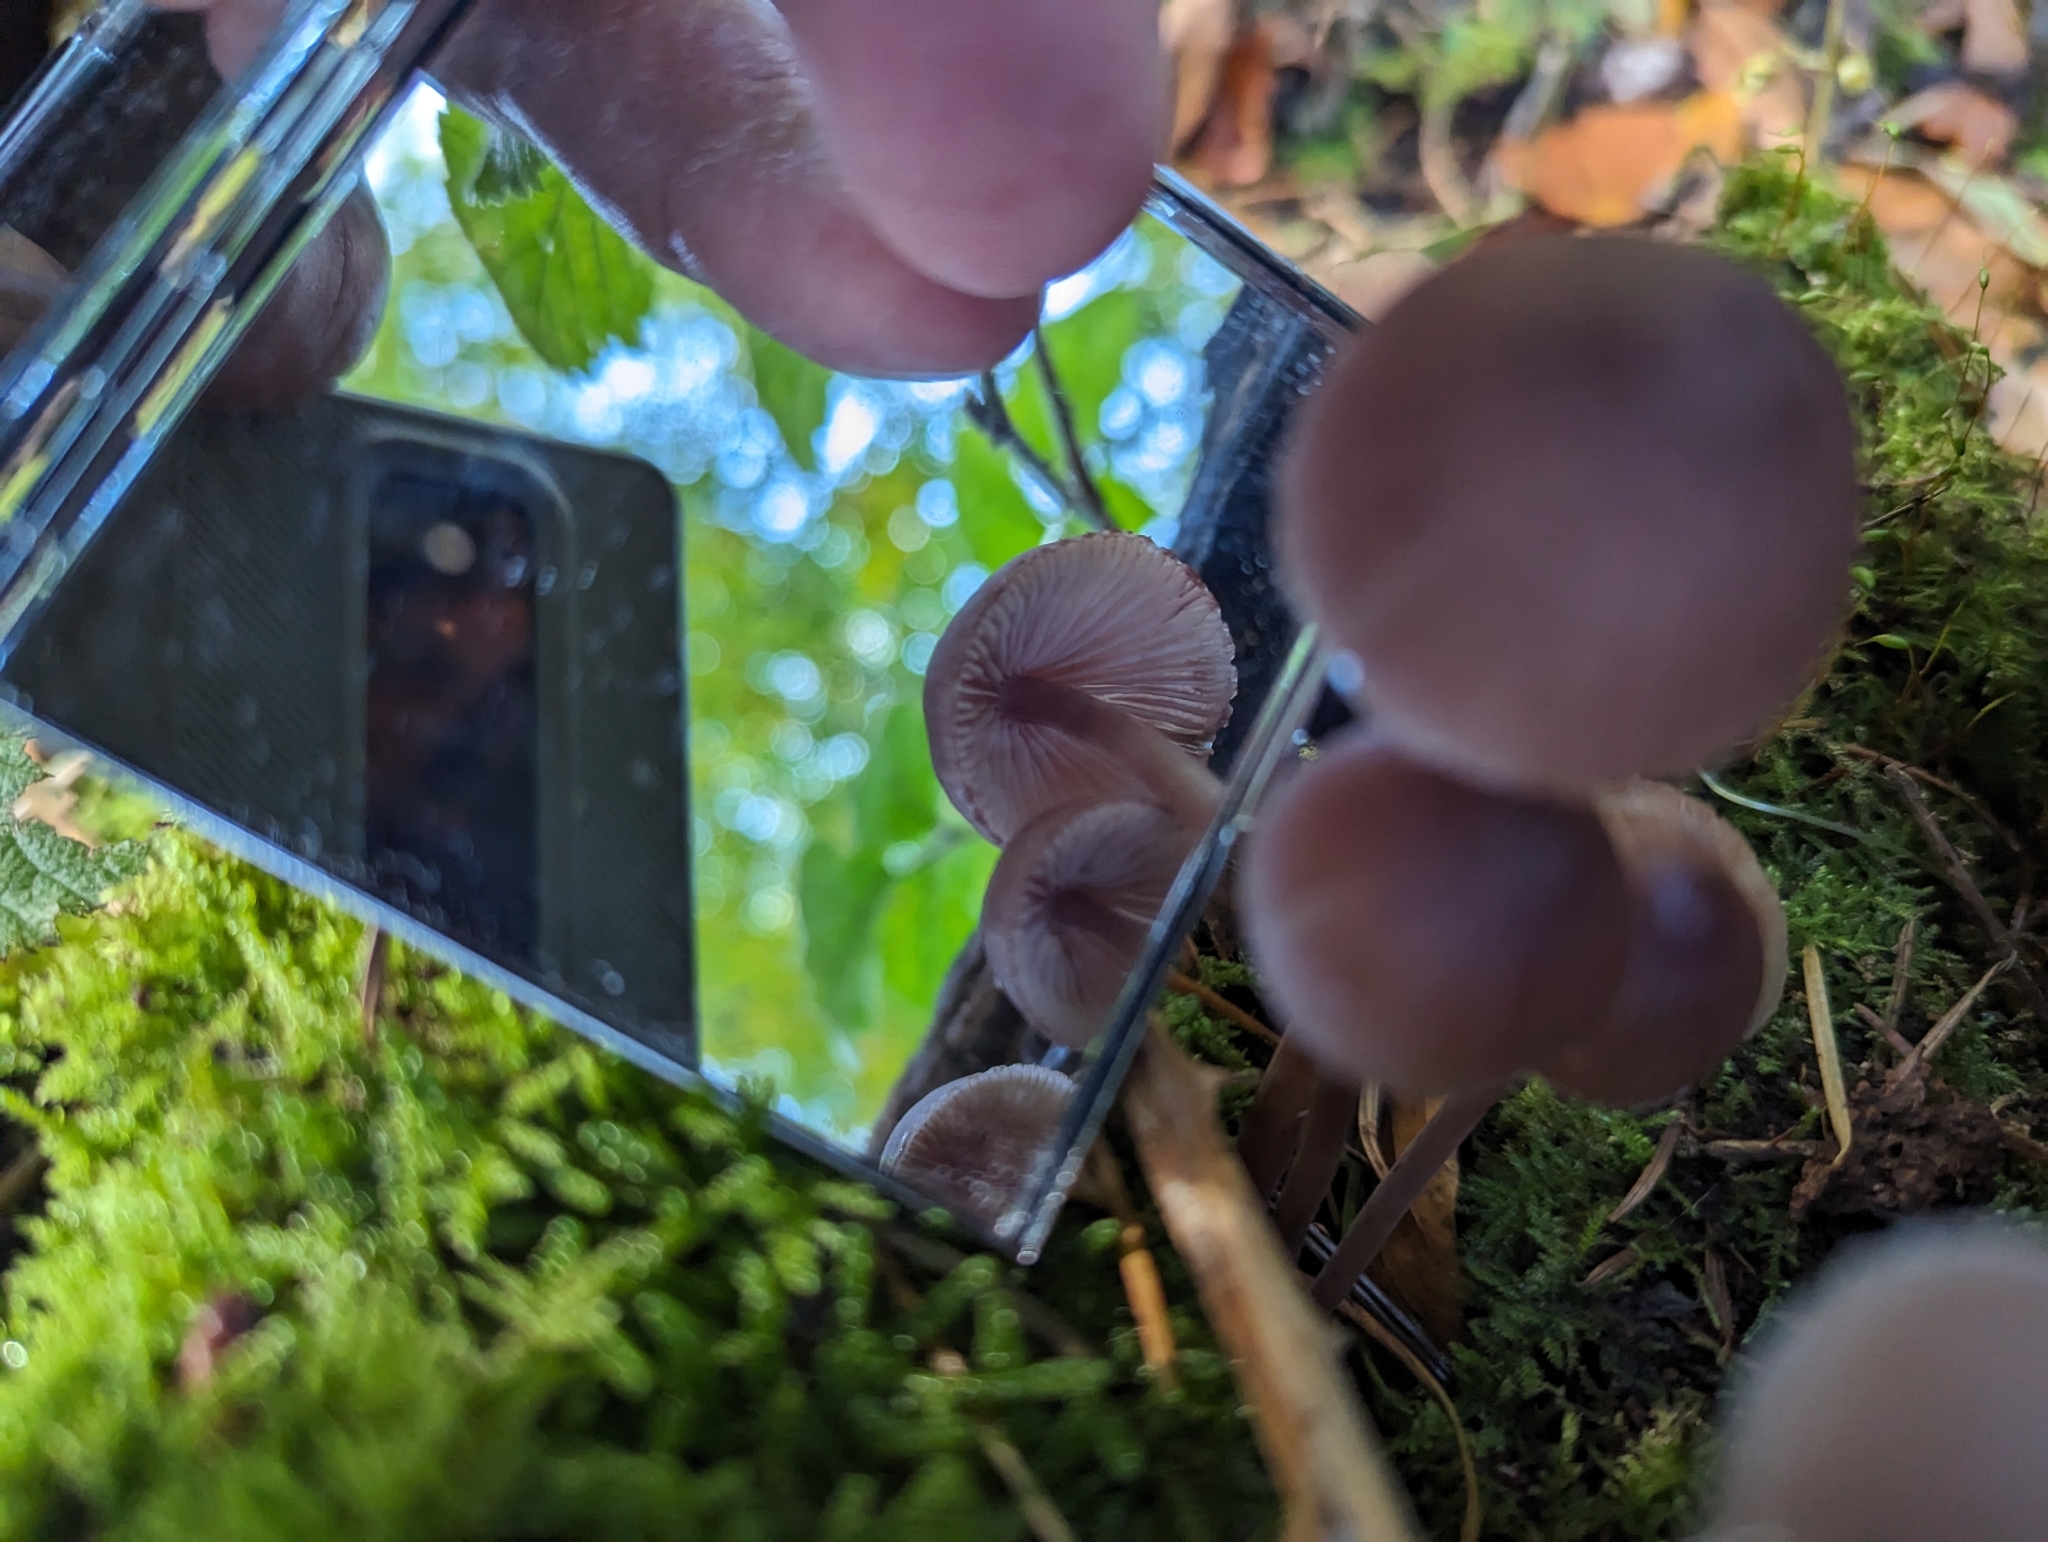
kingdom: Fungi
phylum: Basidiomycota
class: Agaricomycetes
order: Agaricales
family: Mycenaceae
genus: Mycena
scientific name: Mycena haematopus
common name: Burgundydrop bonnet
